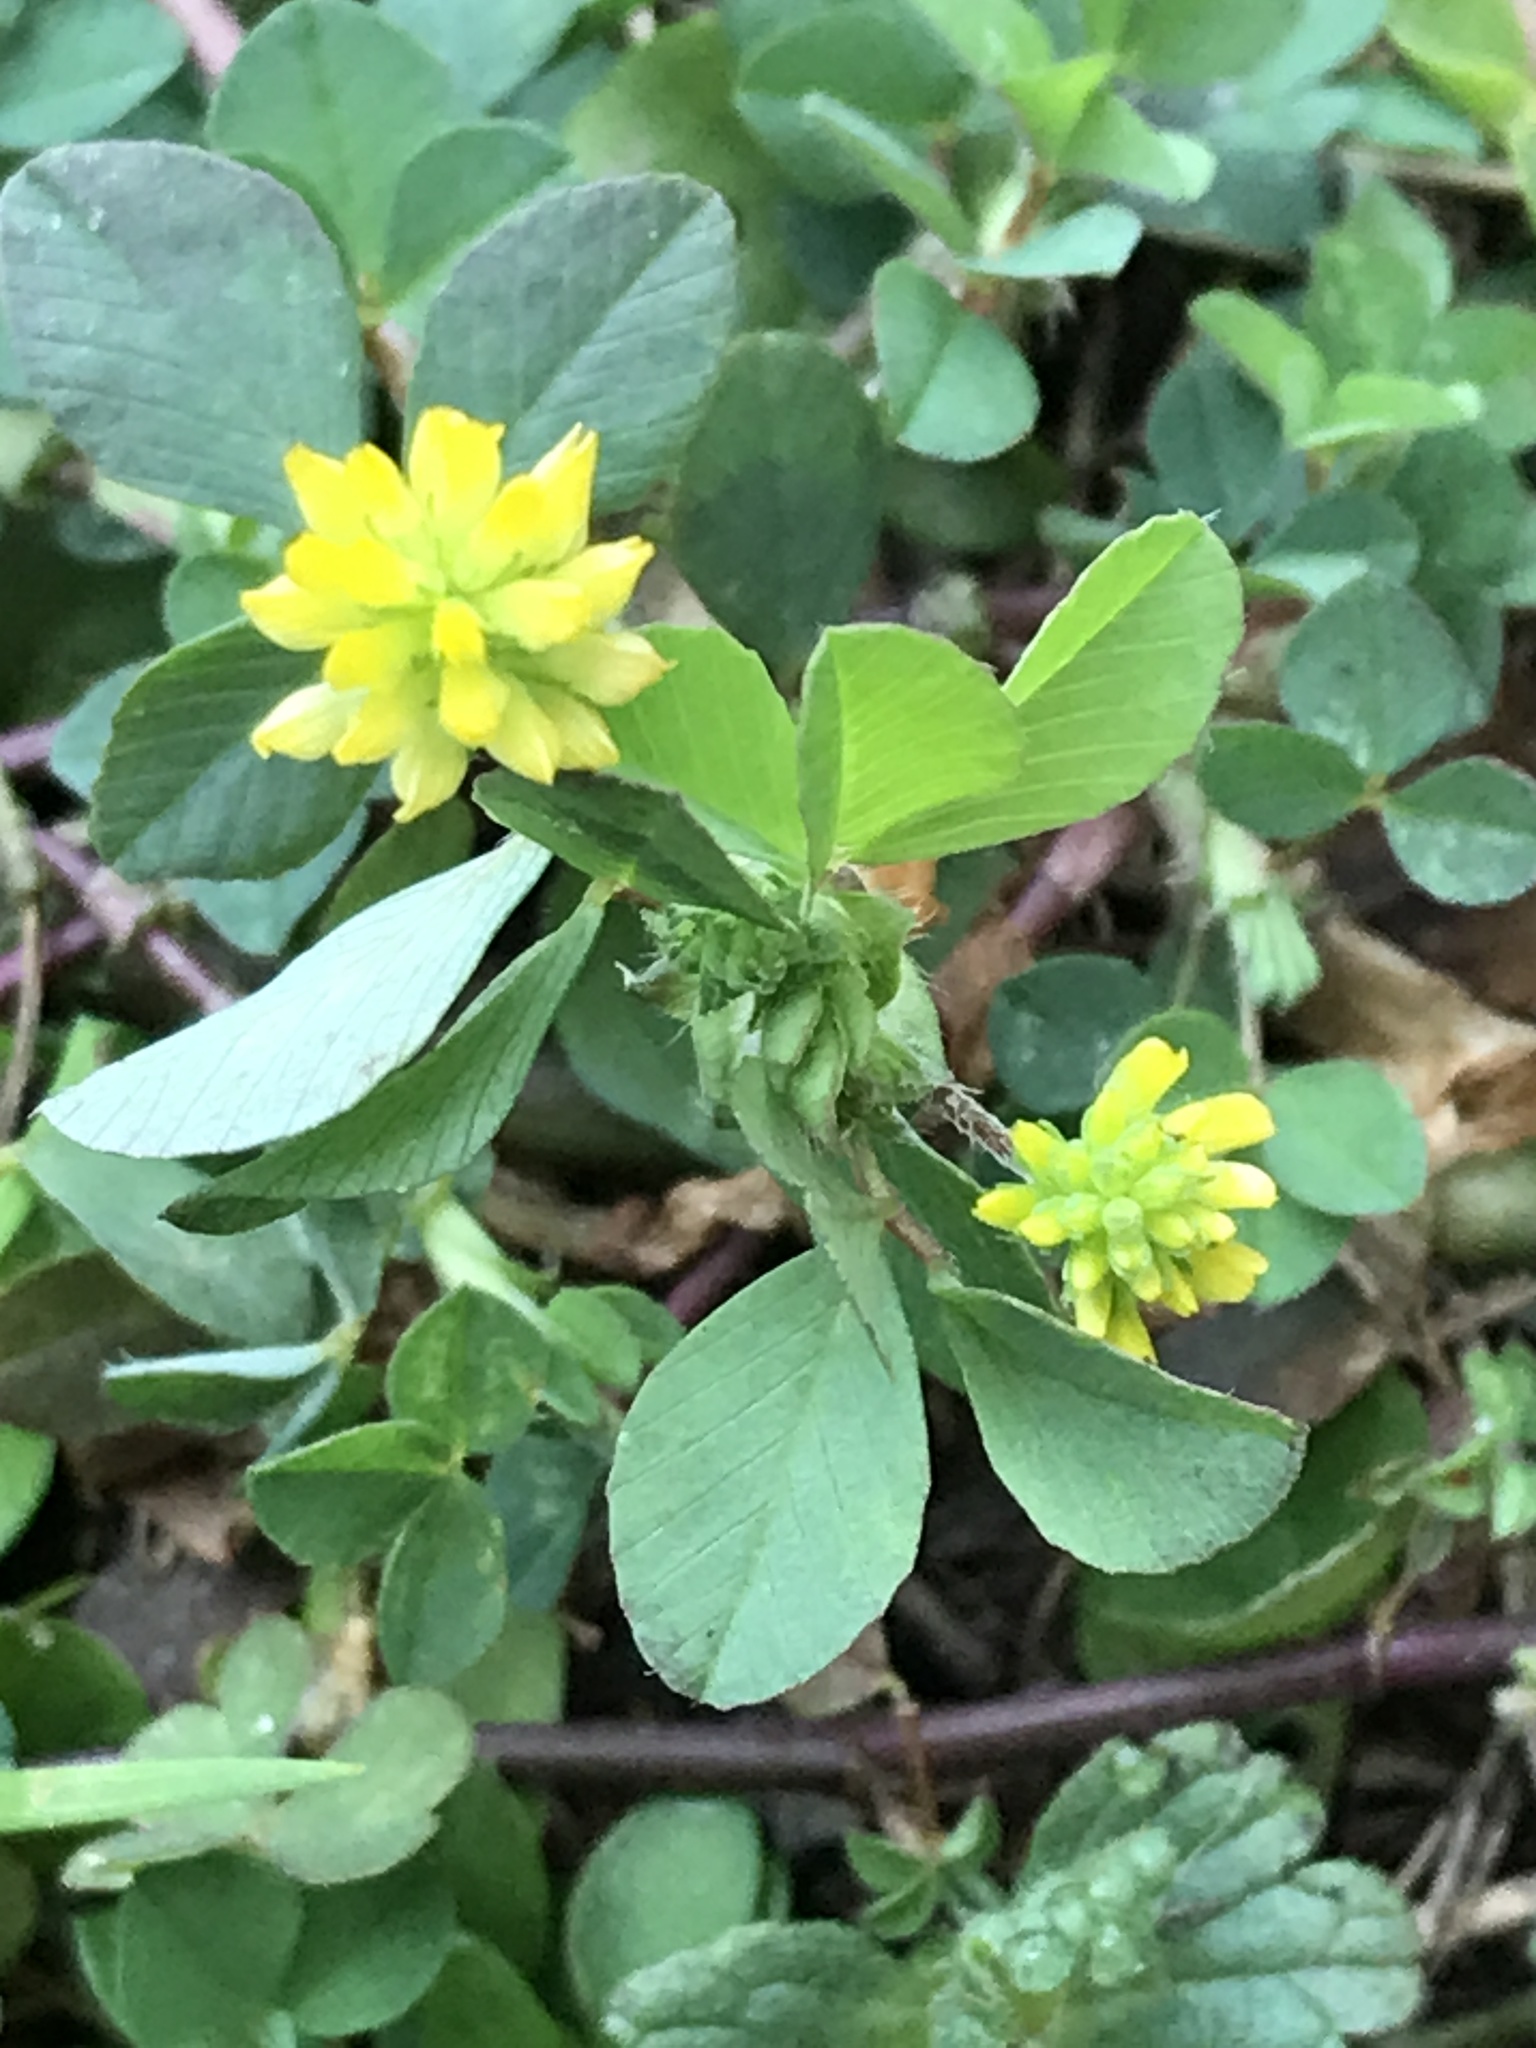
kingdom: Plantae
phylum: Tracheophyta
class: Magnoliopsida
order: Fabales
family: Fabaceae
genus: Trifolium
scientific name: Trifolium dubium
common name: Suckling clover
